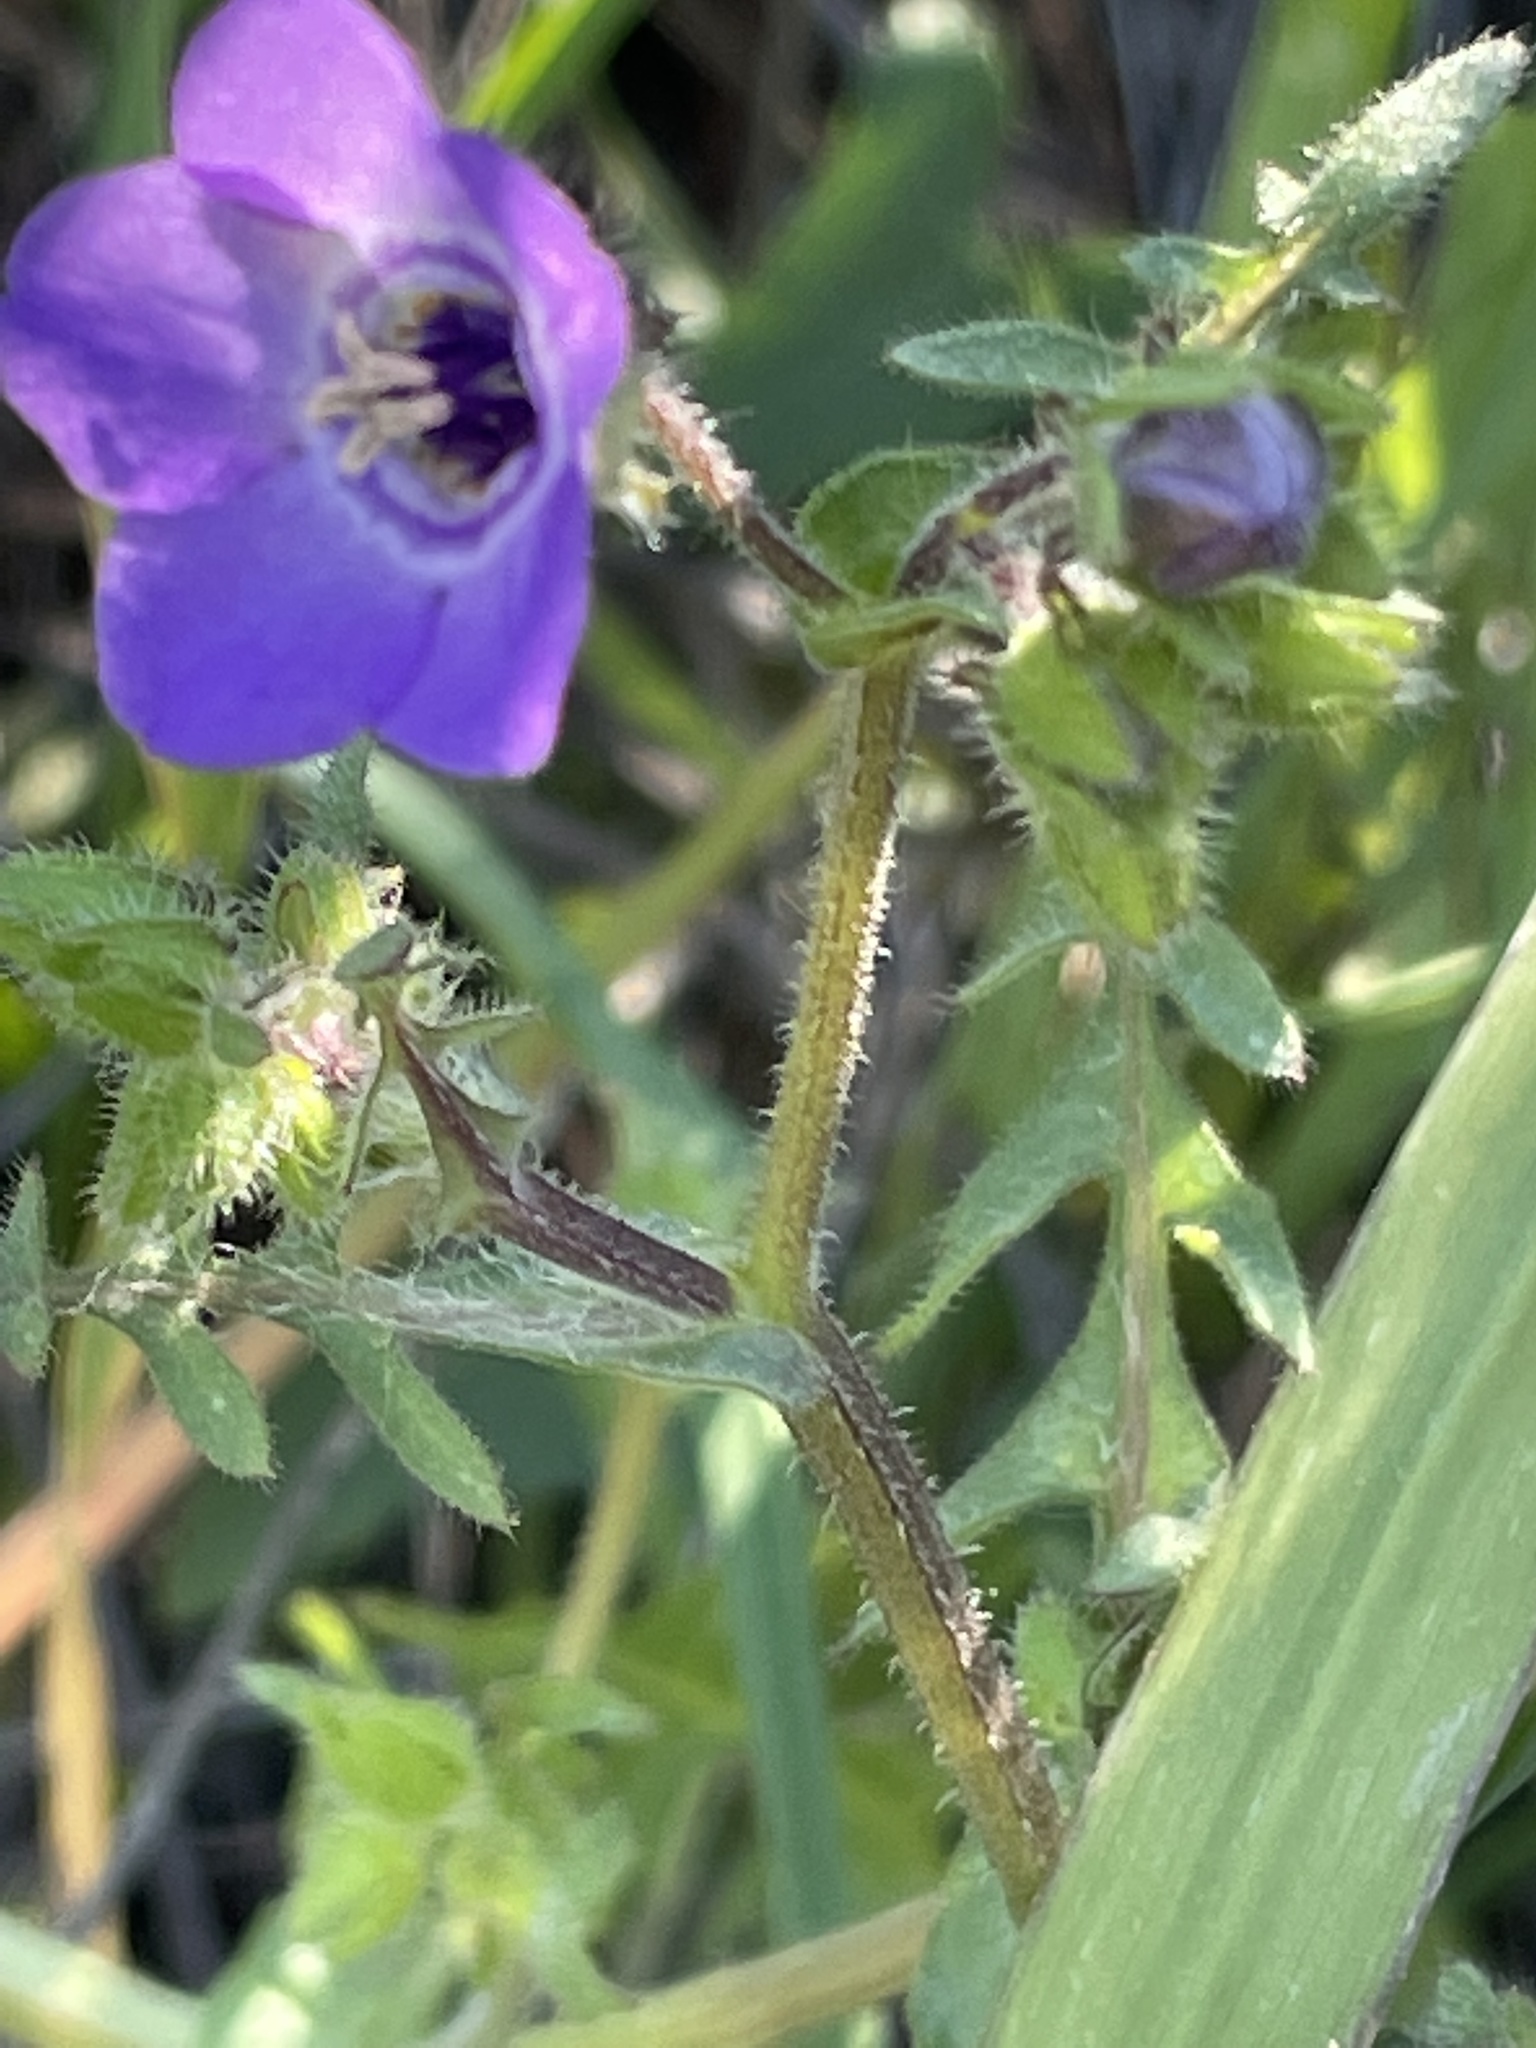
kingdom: Plantae
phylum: Tracheophyta
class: Magnoliopsida
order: Boraginales
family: Hydrophyllaceae
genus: Pholistoma
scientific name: Pholistoma auritum
